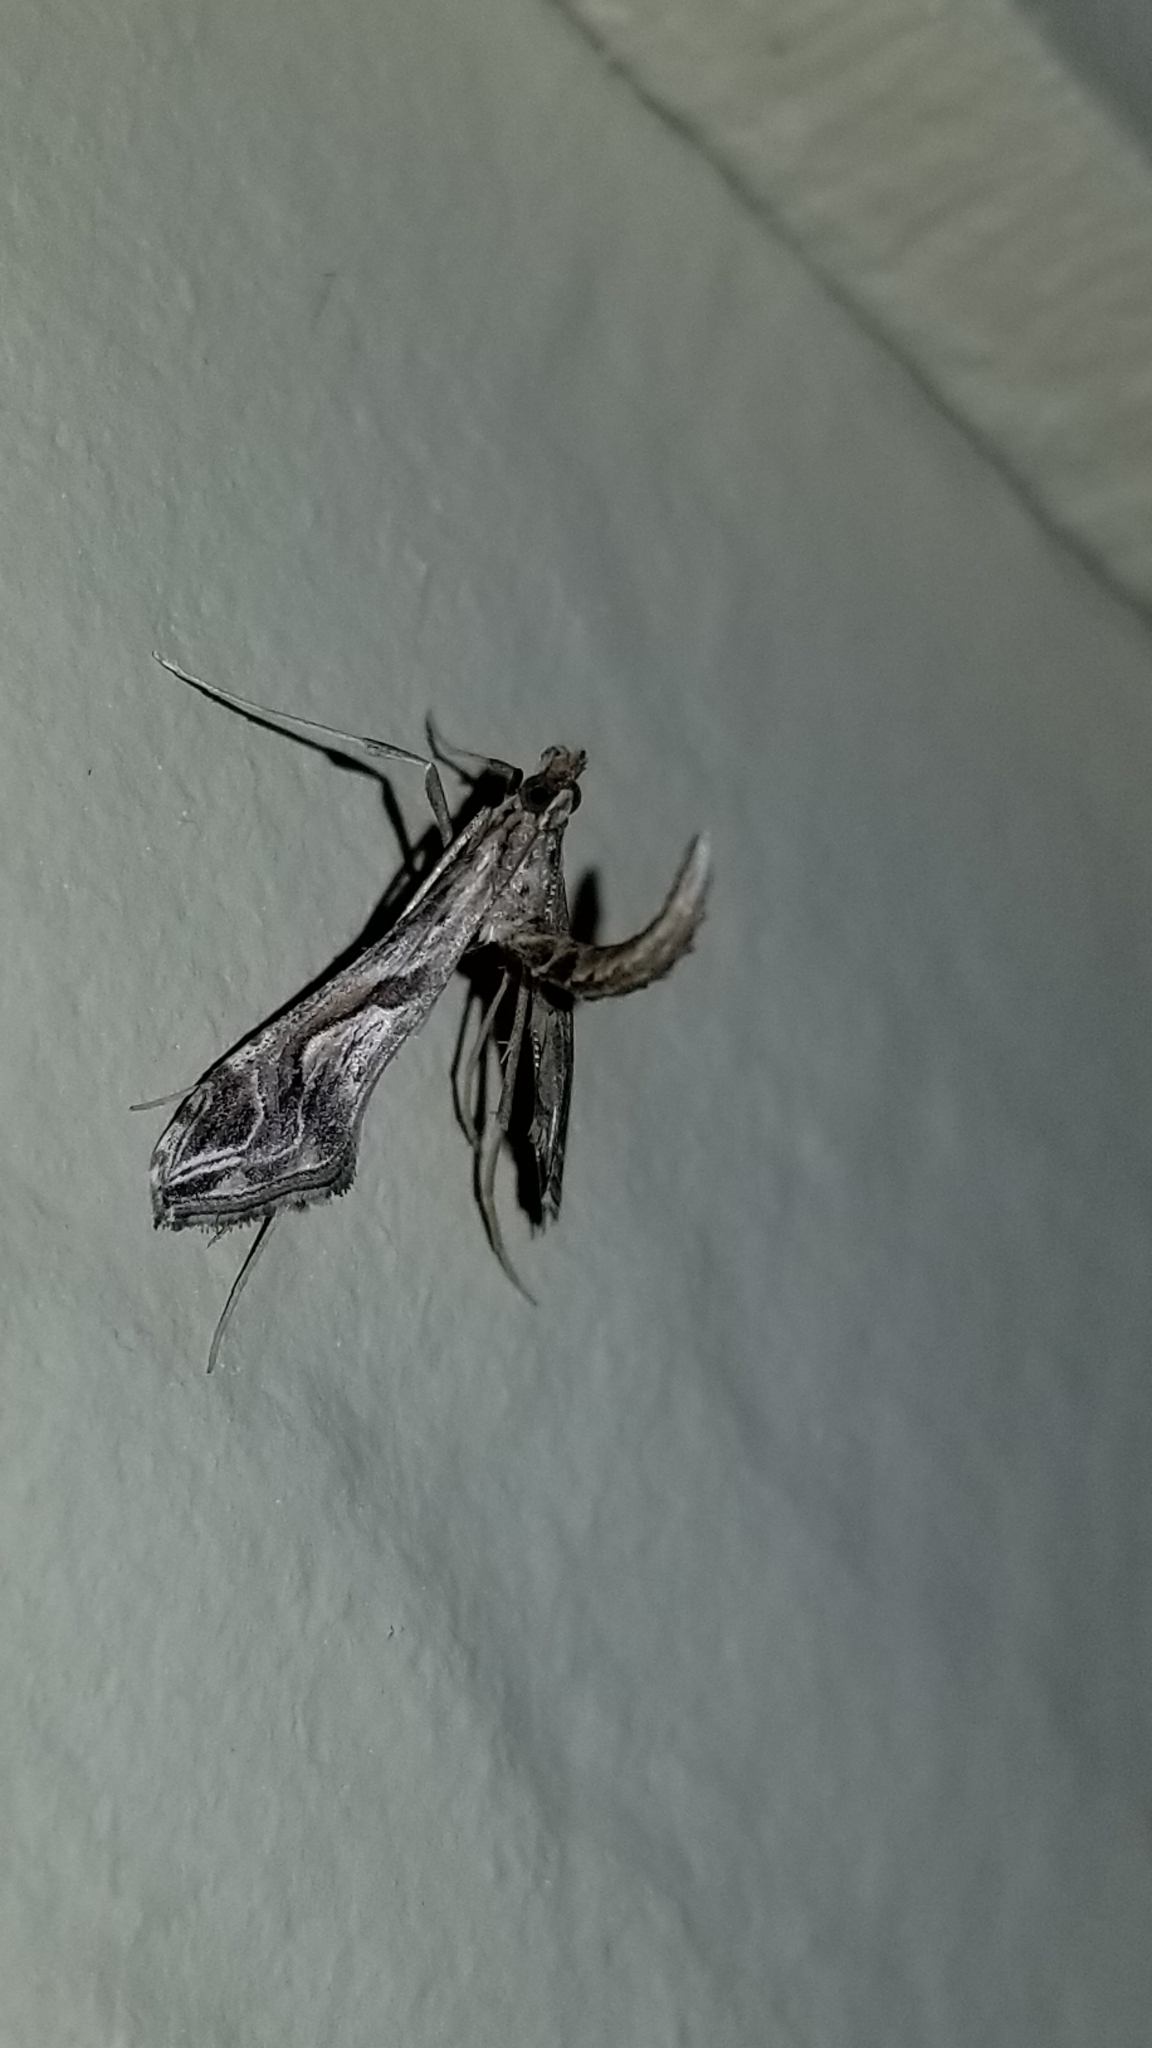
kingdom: Animalia
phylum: Arthropoda
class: Insecta
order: Lepidoptera
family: Crambidae
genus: Lineodes
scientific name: Lineodes integra
